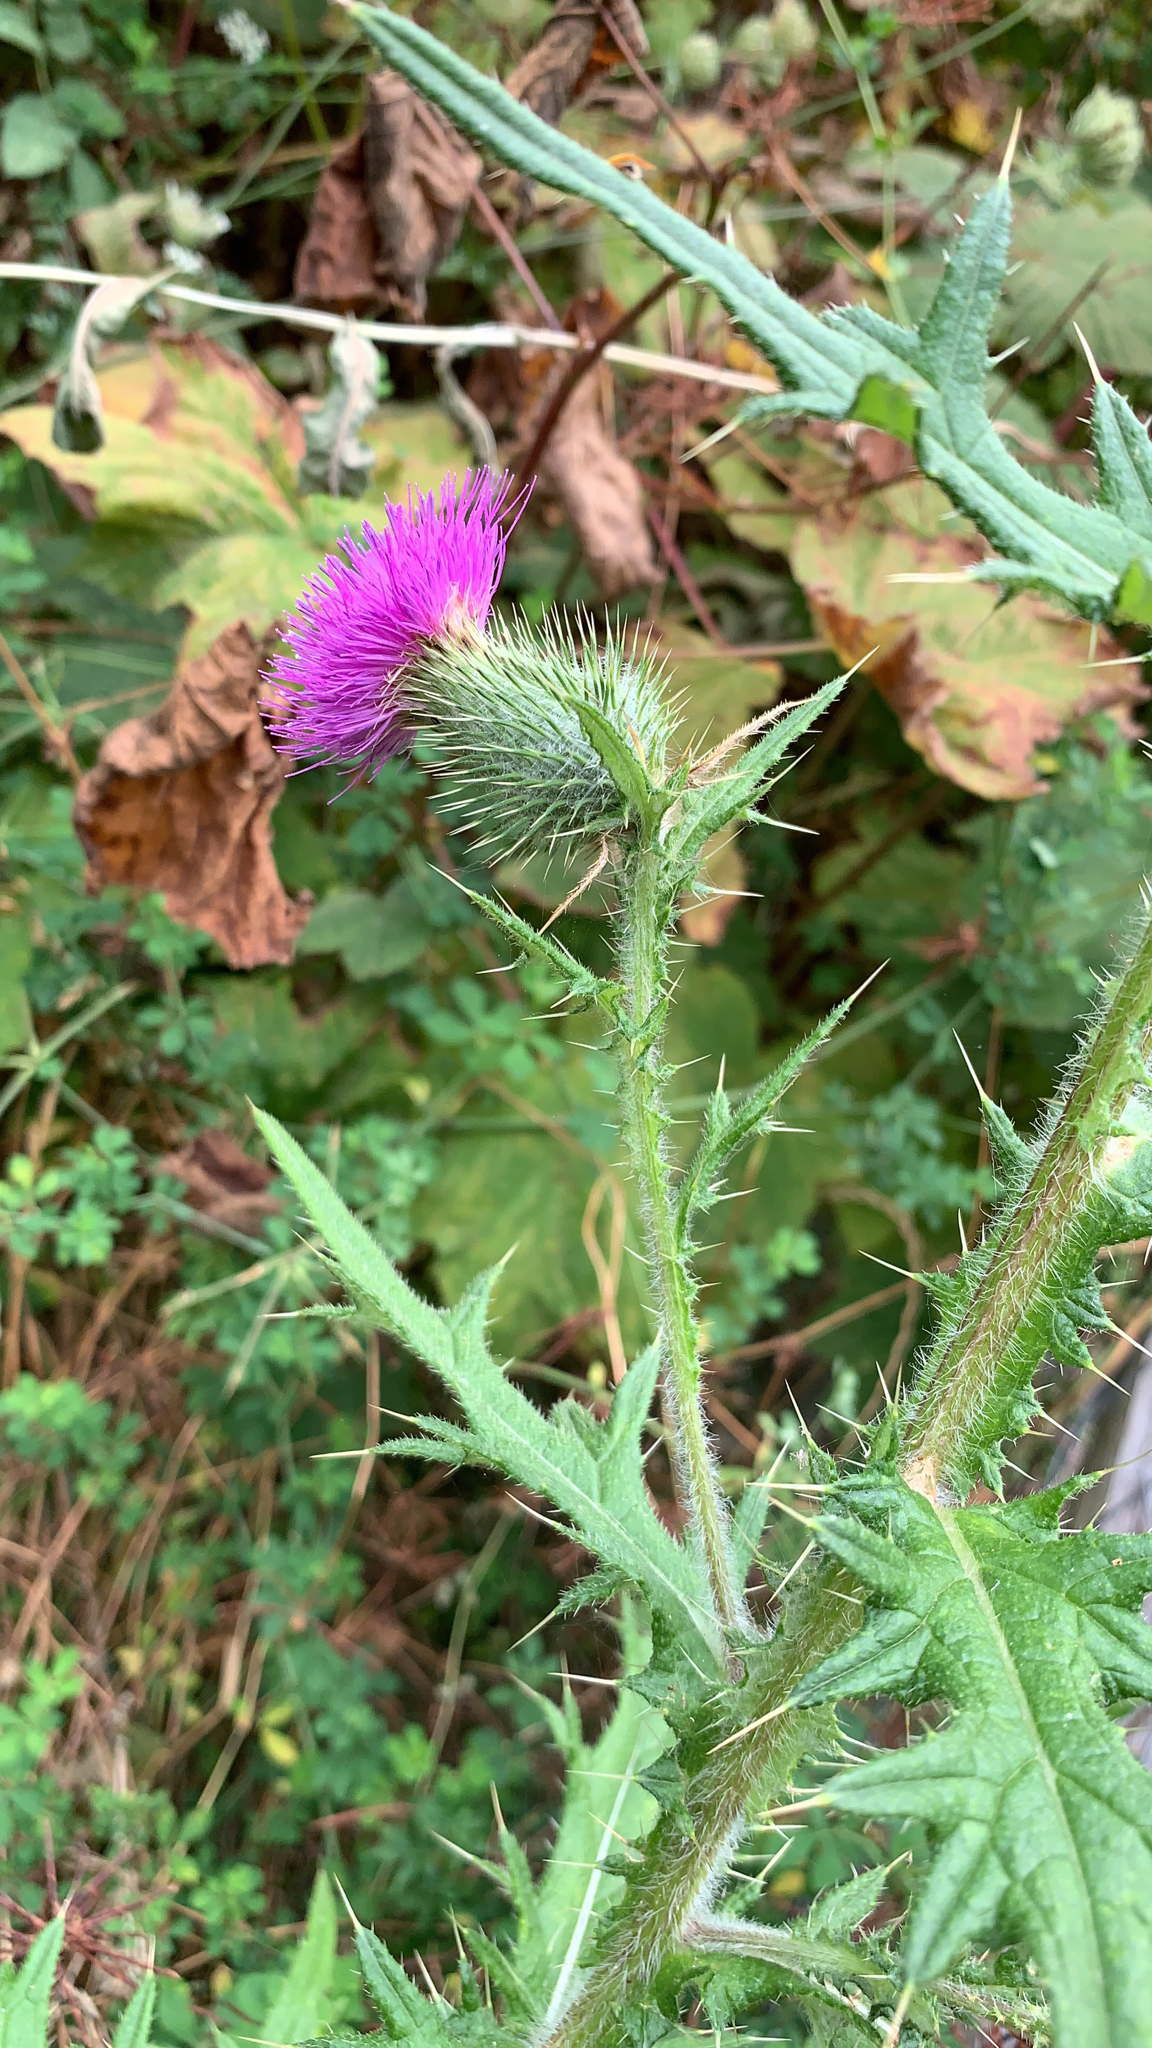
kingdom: Plantae
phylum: Tracheophyta
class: Magnoliopsida
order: Asterales
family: Asteraceae
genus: Cirsium
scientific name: Cirsium vulgare
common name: Bull thistle
